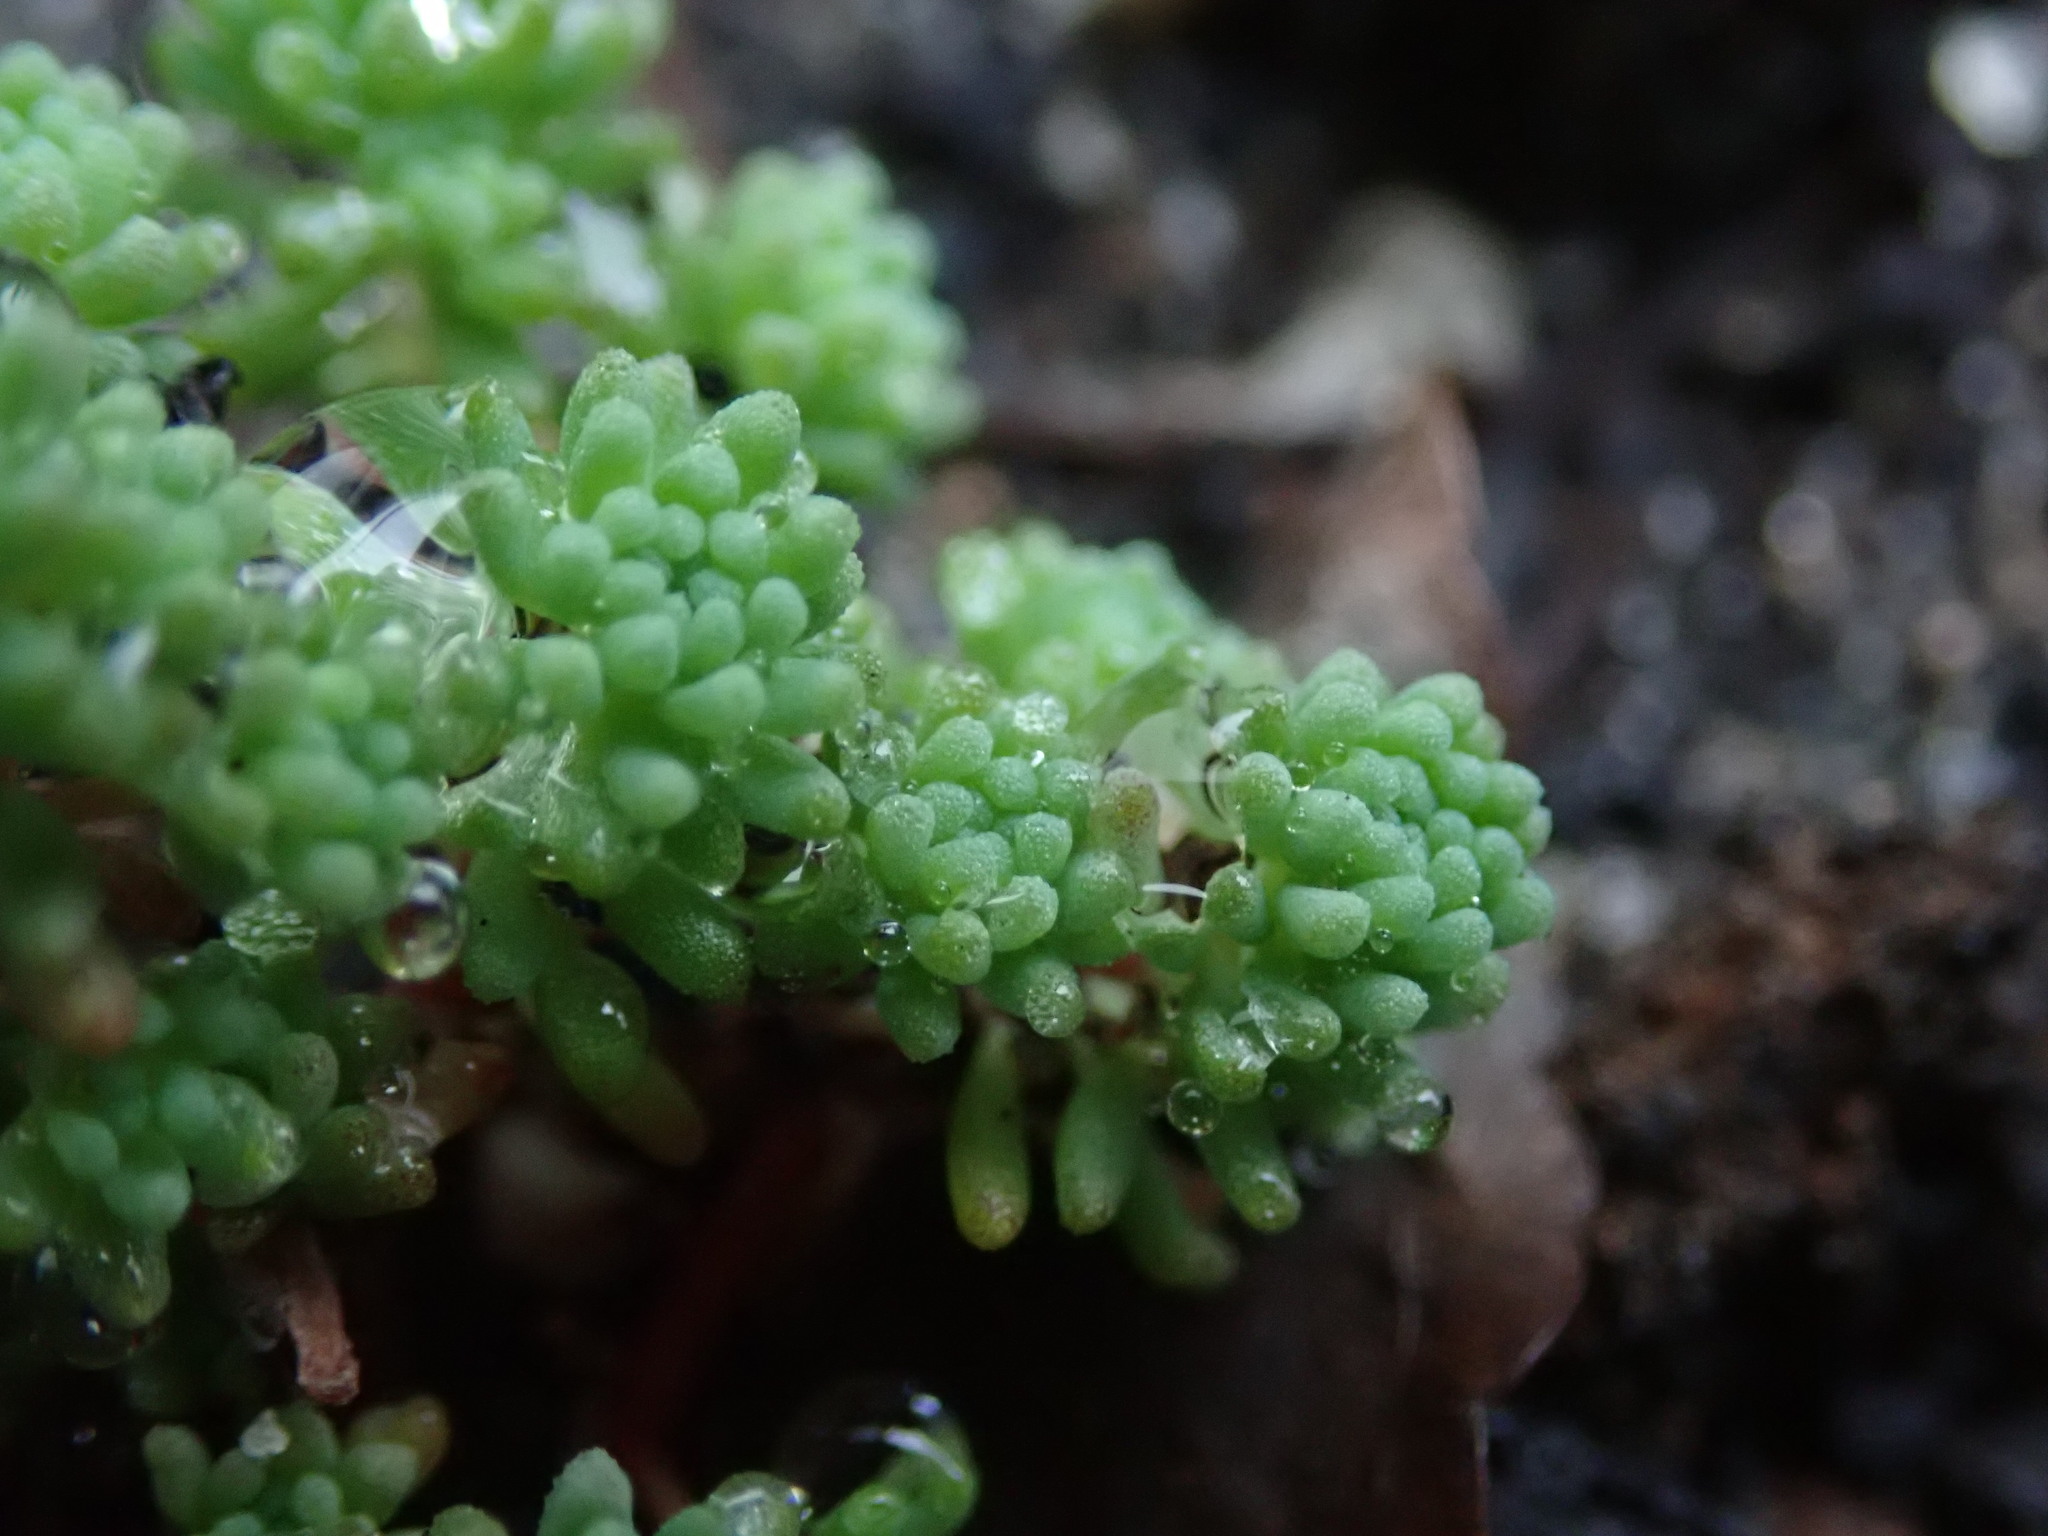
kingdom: Plantae
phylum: Tracheophyta
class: Magnoliopsida
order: Saxifragales
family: Crassulaceae
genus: Sedum
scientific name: Sedum pallidum
